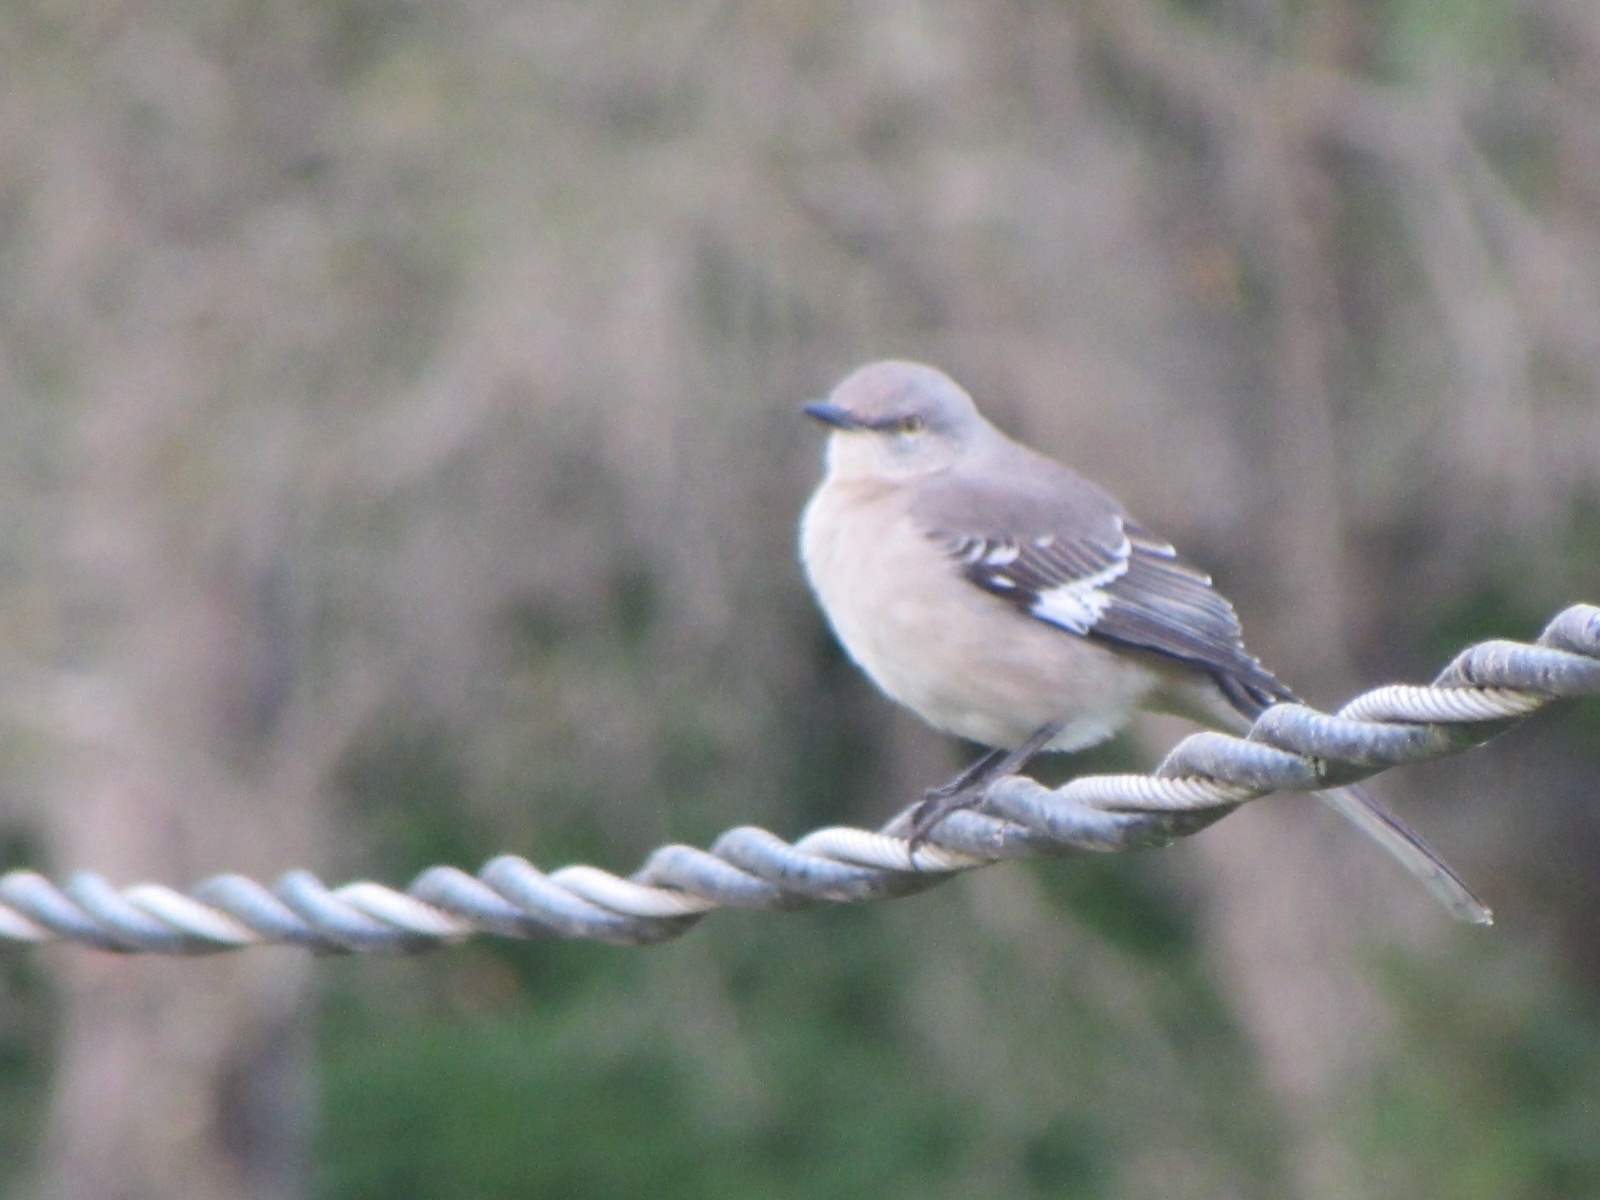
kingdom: Animalia
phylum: Chordata
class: Aves
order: Passeriformes
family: Mimidae
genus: Mimus
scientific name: Mimus polyglottos
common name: Northern mockingbird
